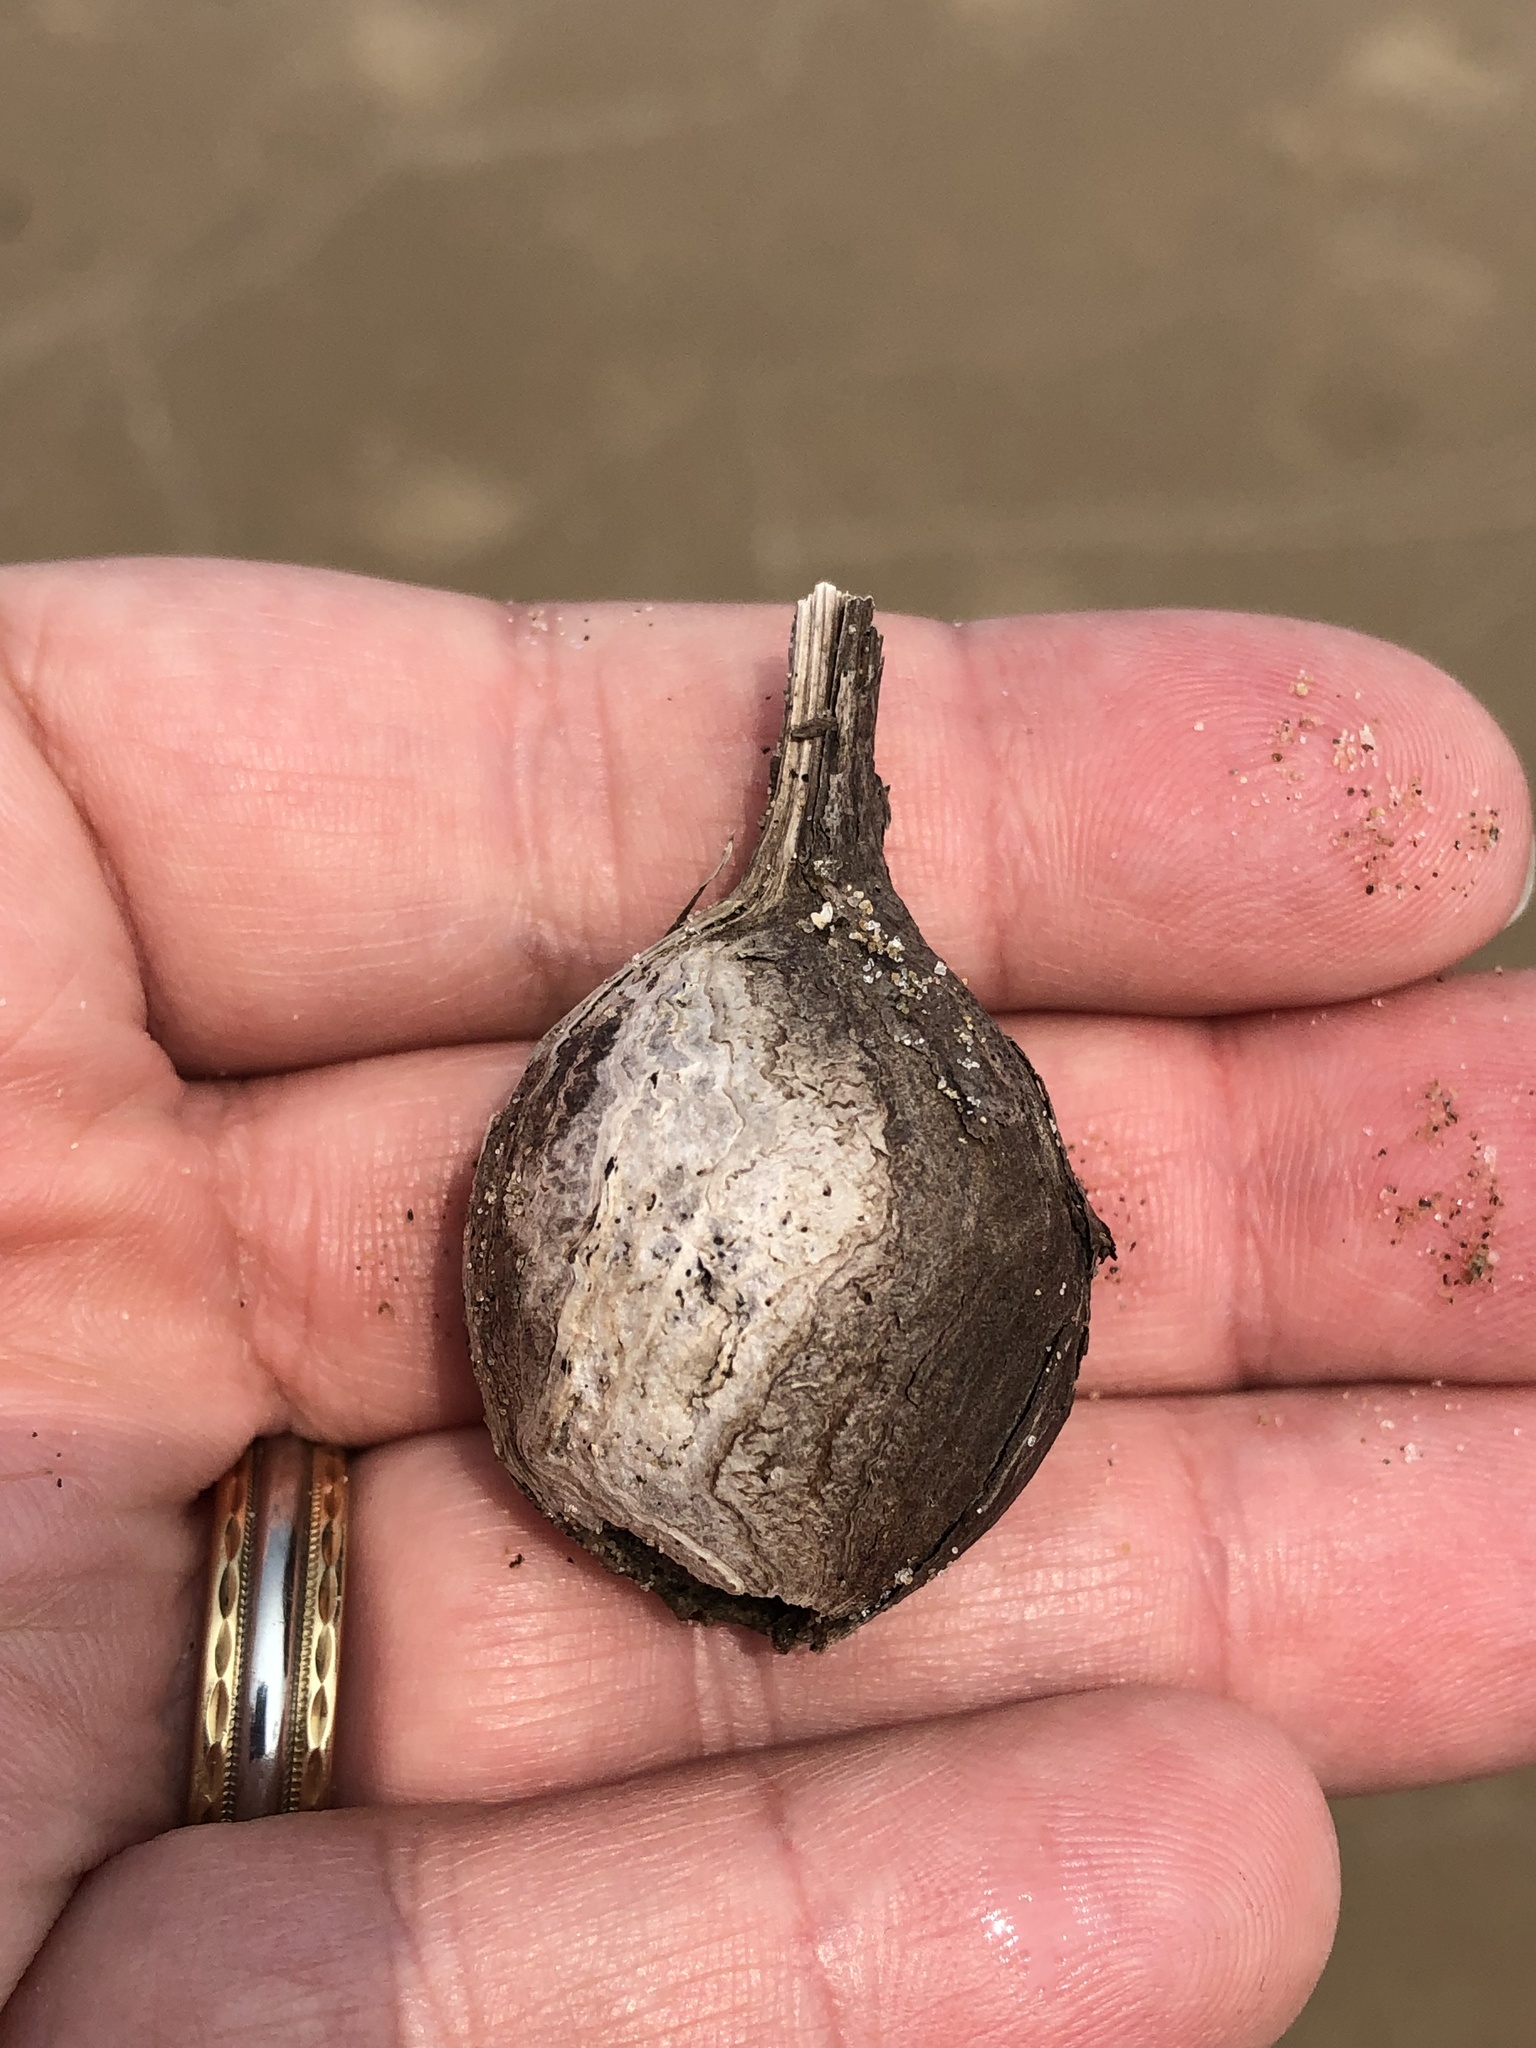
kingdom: Animalia
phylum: Arthropoda
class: Insecta
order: Diptera
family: Tephritidae
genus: Eurosta
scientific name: Eurosta solidaginis
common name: Goldenrod gall fly
